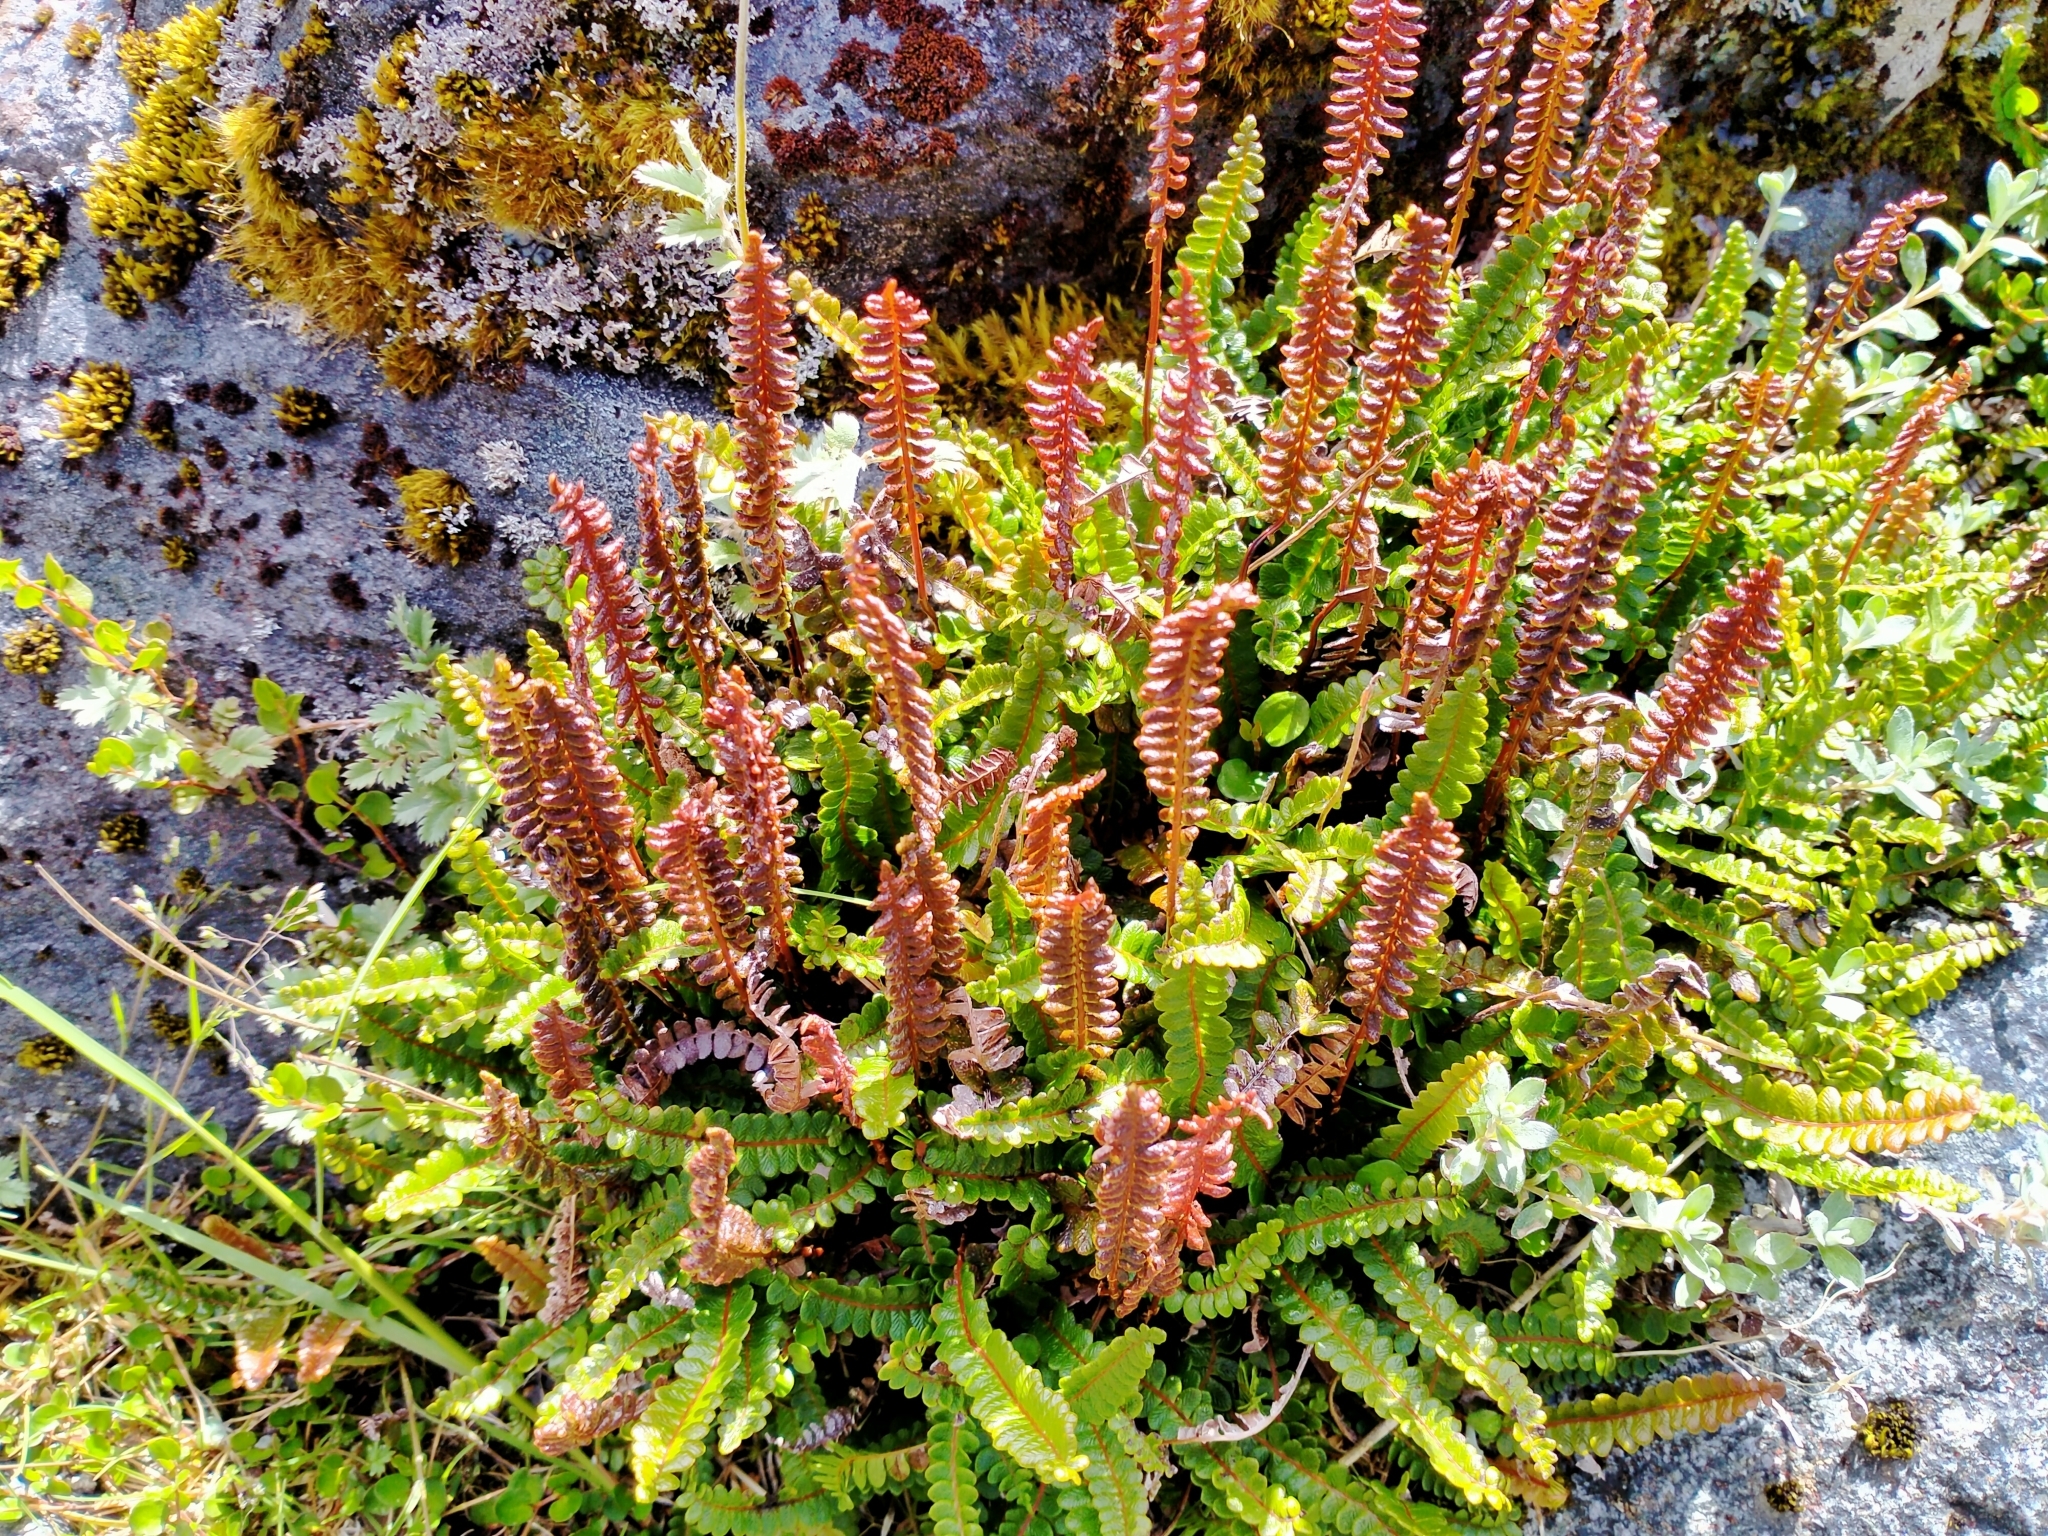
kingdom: Plantae
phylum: Tracheophyta
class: Polypodiopsida
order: Polypodiales
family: Blechnaceae
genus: Austroblechnum
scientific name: Austroblechnum penna-marina
